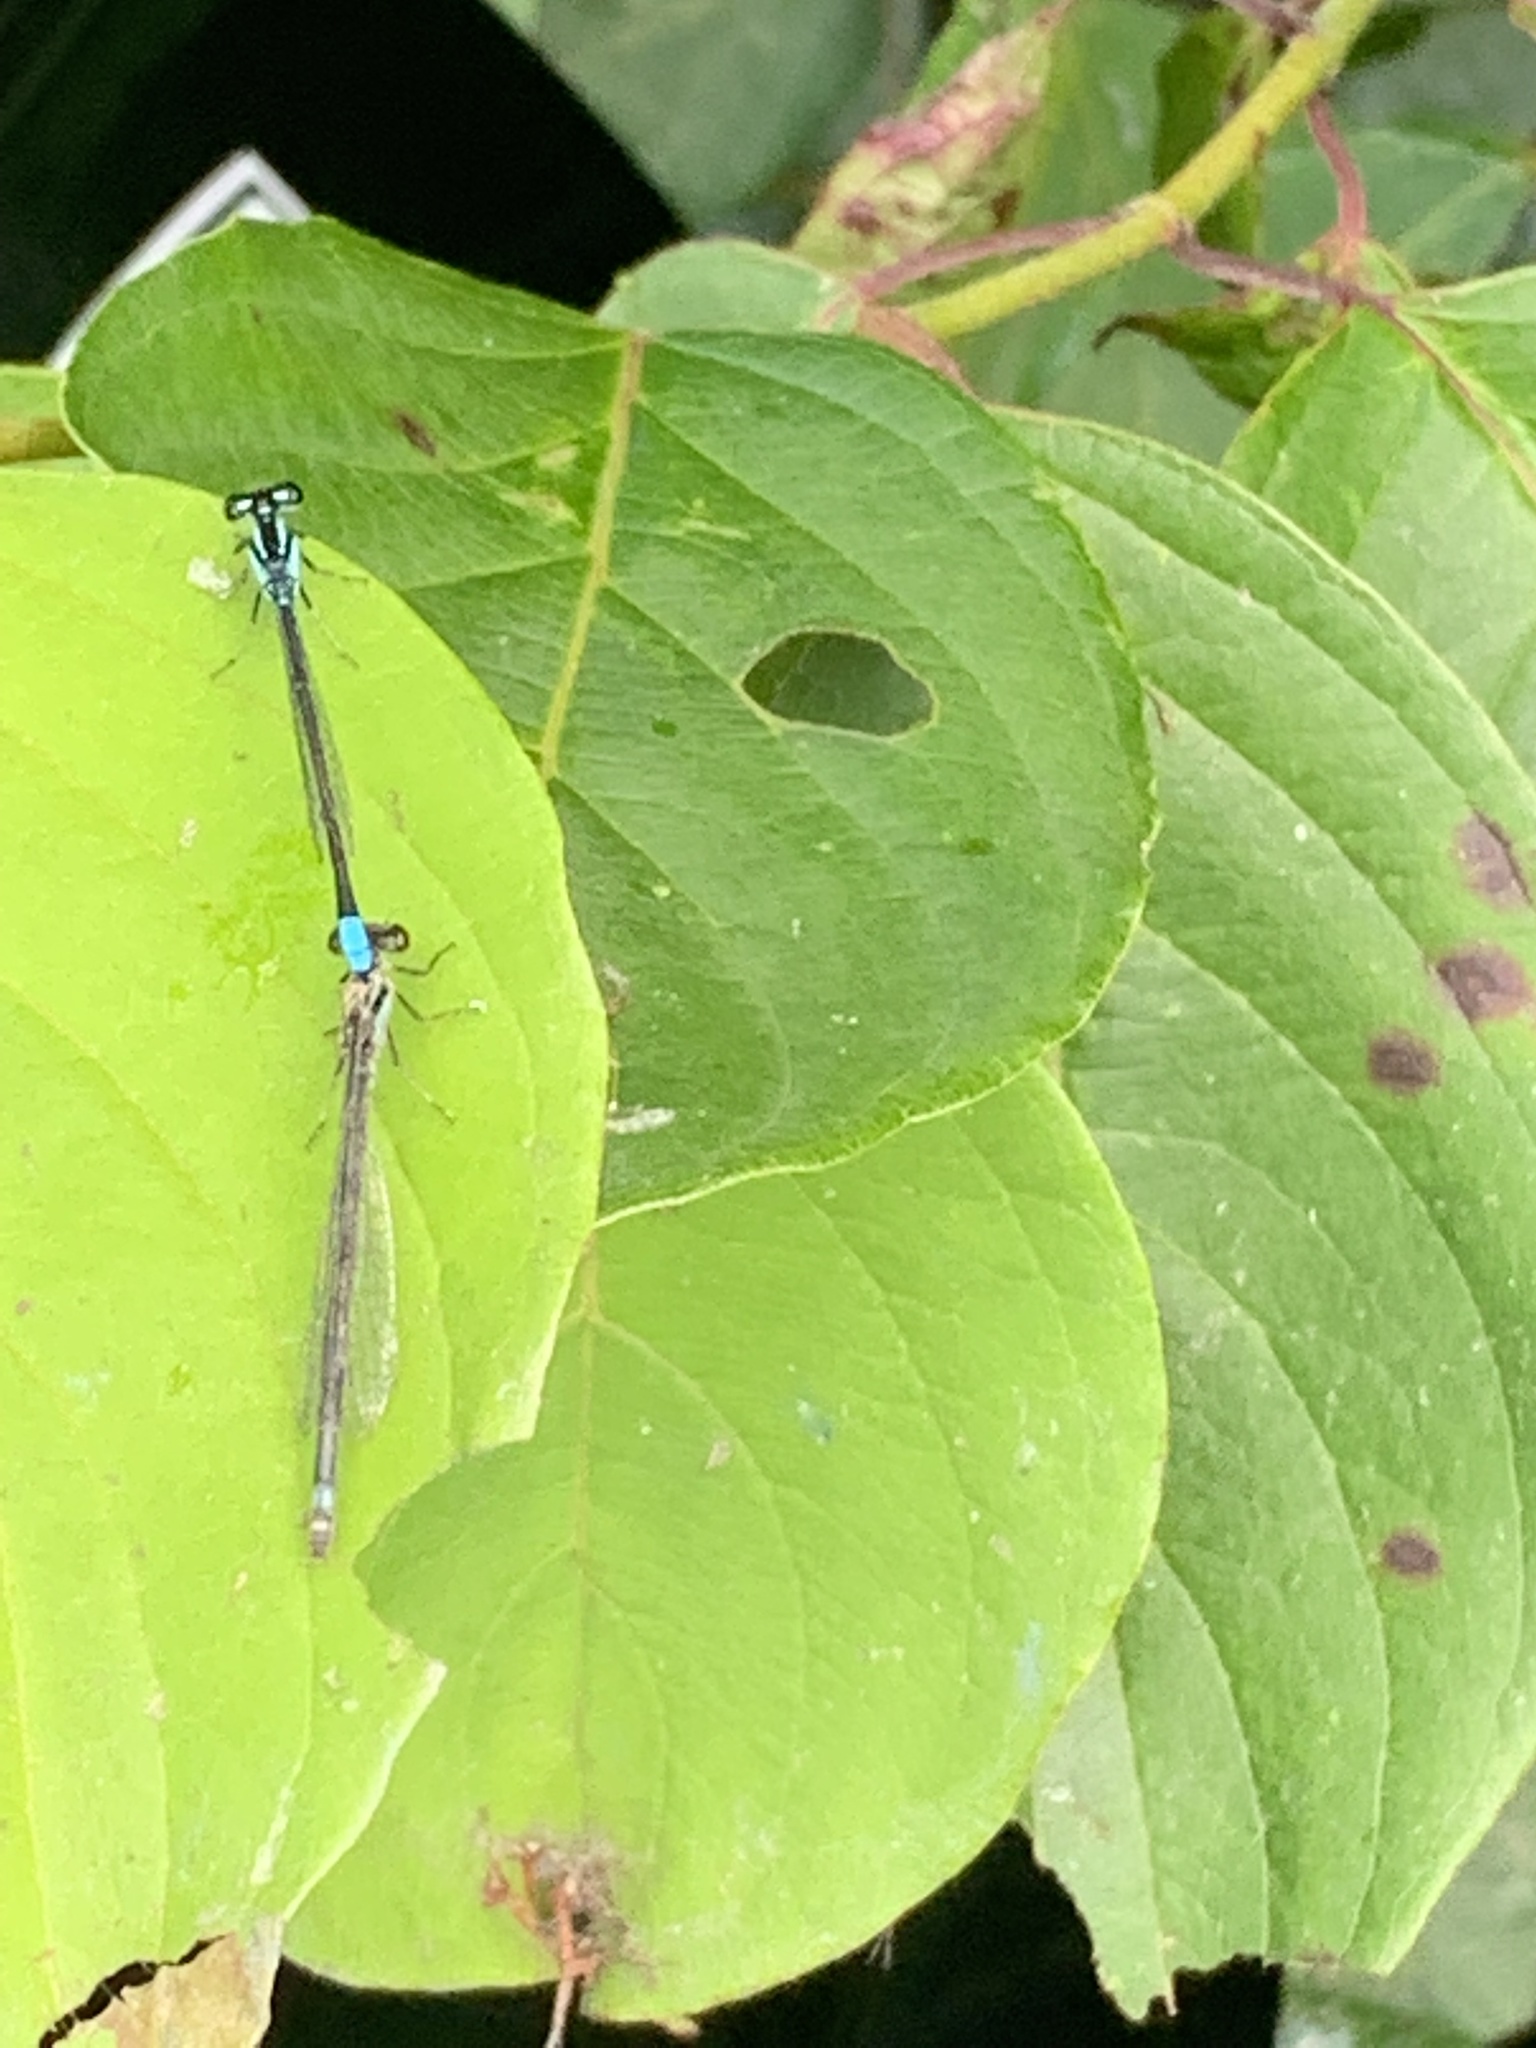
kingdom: Animalia
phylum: Arthropoda
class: Insecta
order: Odonata
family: Coenagrionidae
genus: Enallagma
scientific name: Enallagma geminatum
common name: Skimming bluet
